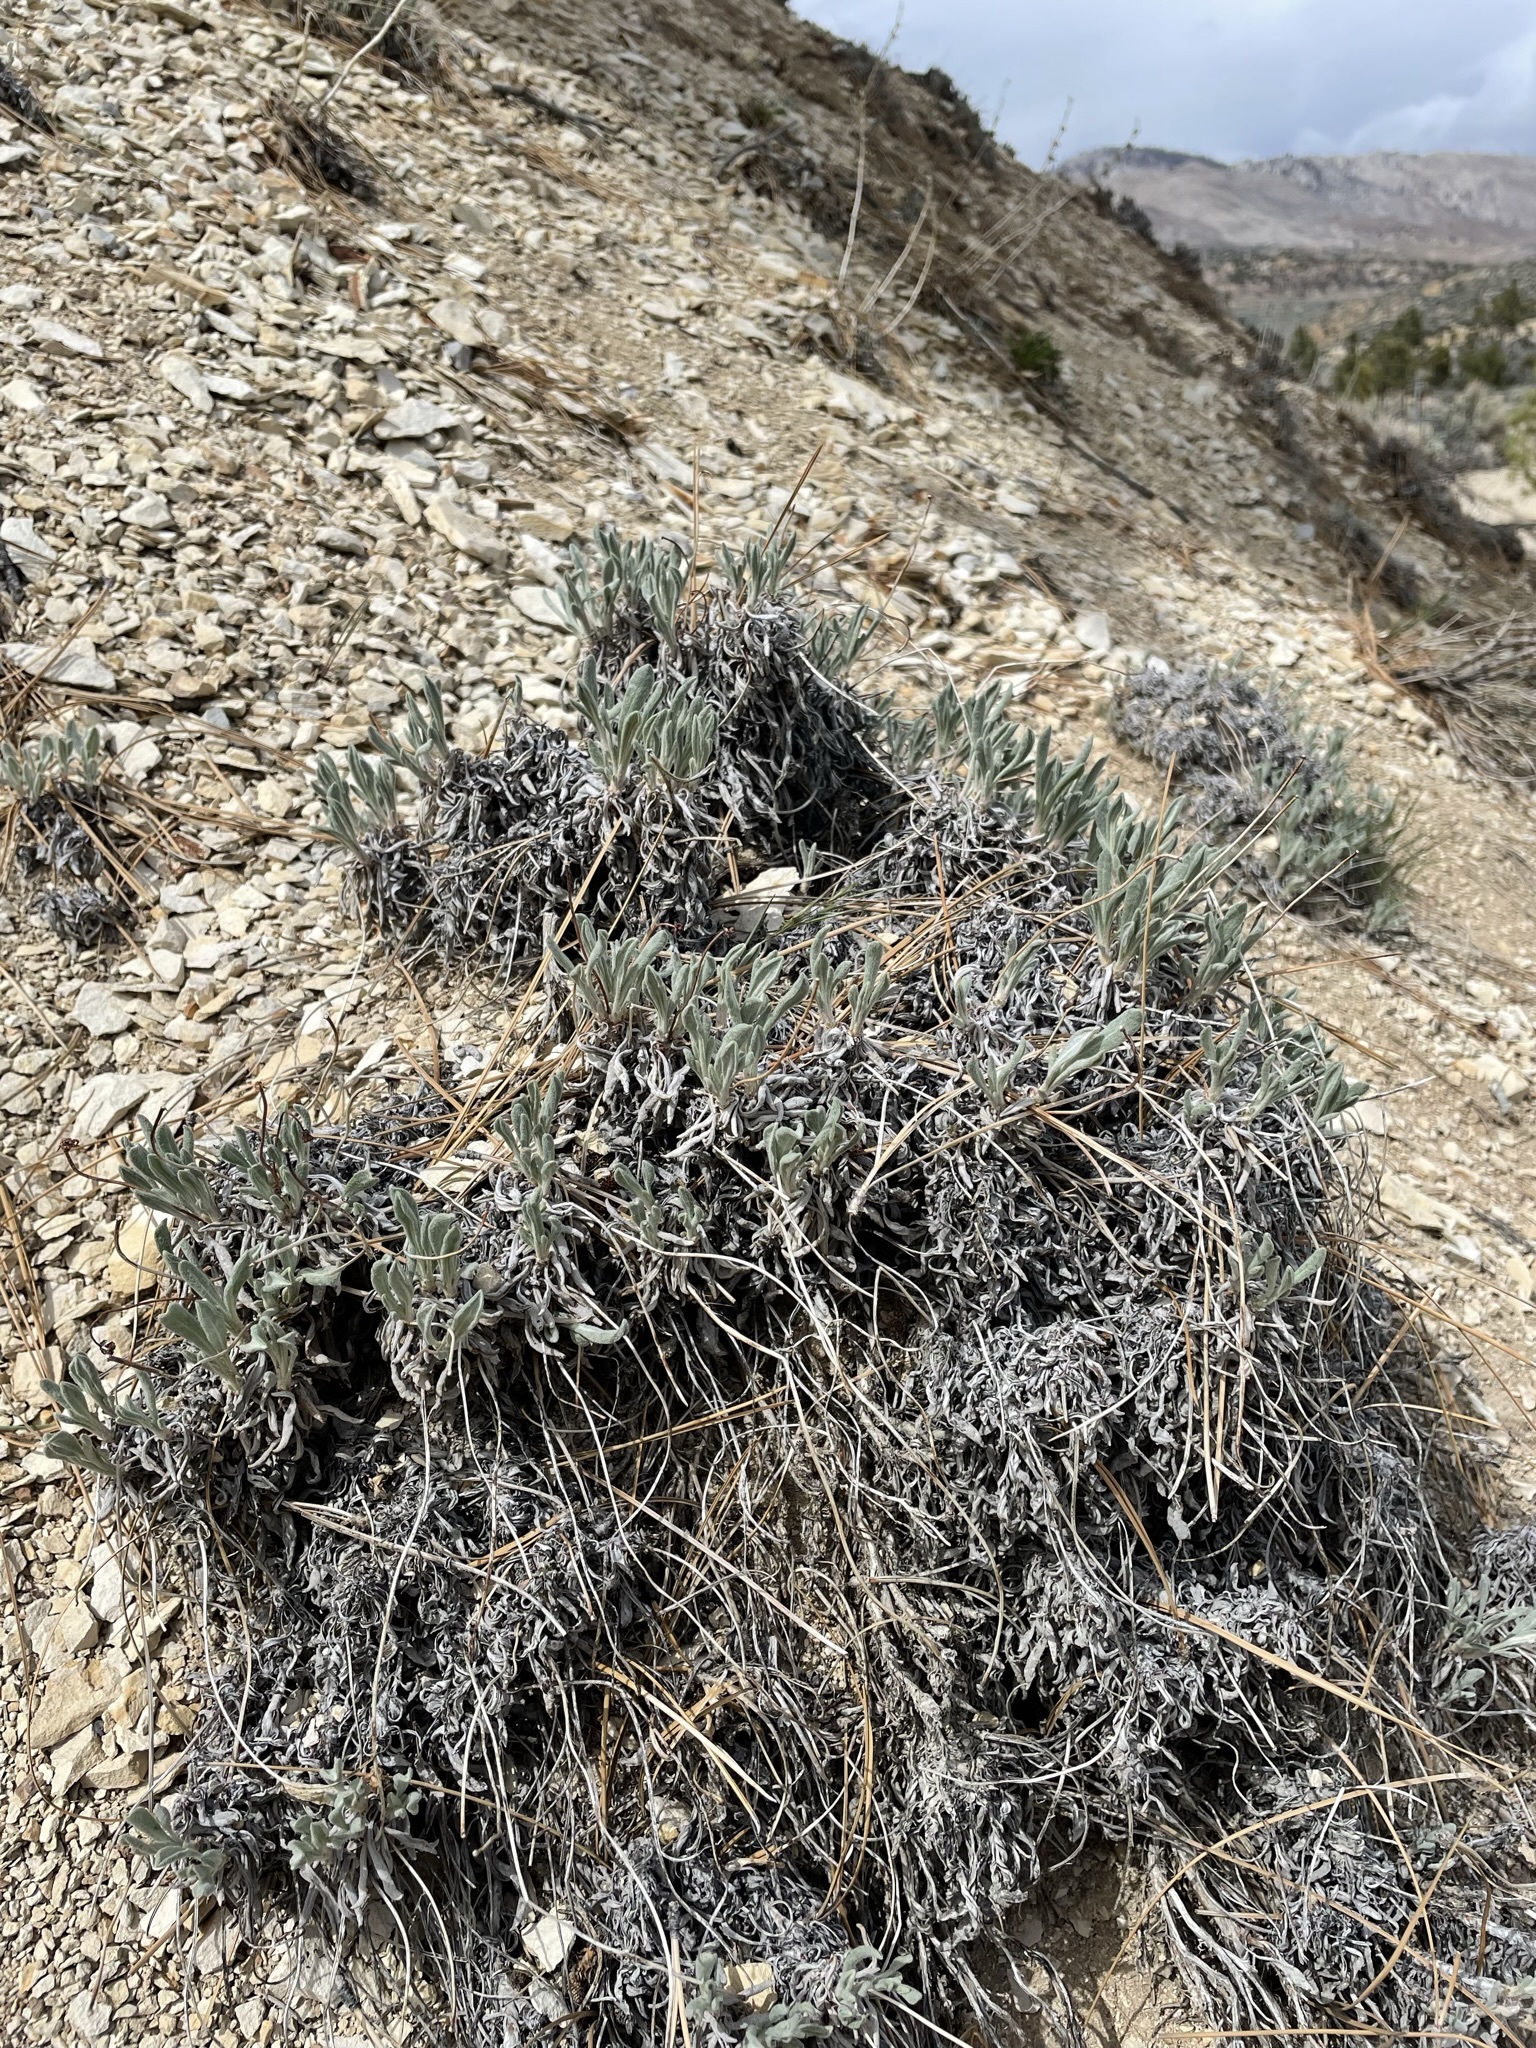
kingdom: Plantae
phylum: Tracheophyta
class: Magnoliopsida
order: Caryophyllales
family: Polygonaceae
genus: Eriogonum
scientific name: Eriogonum ochrocephalum
